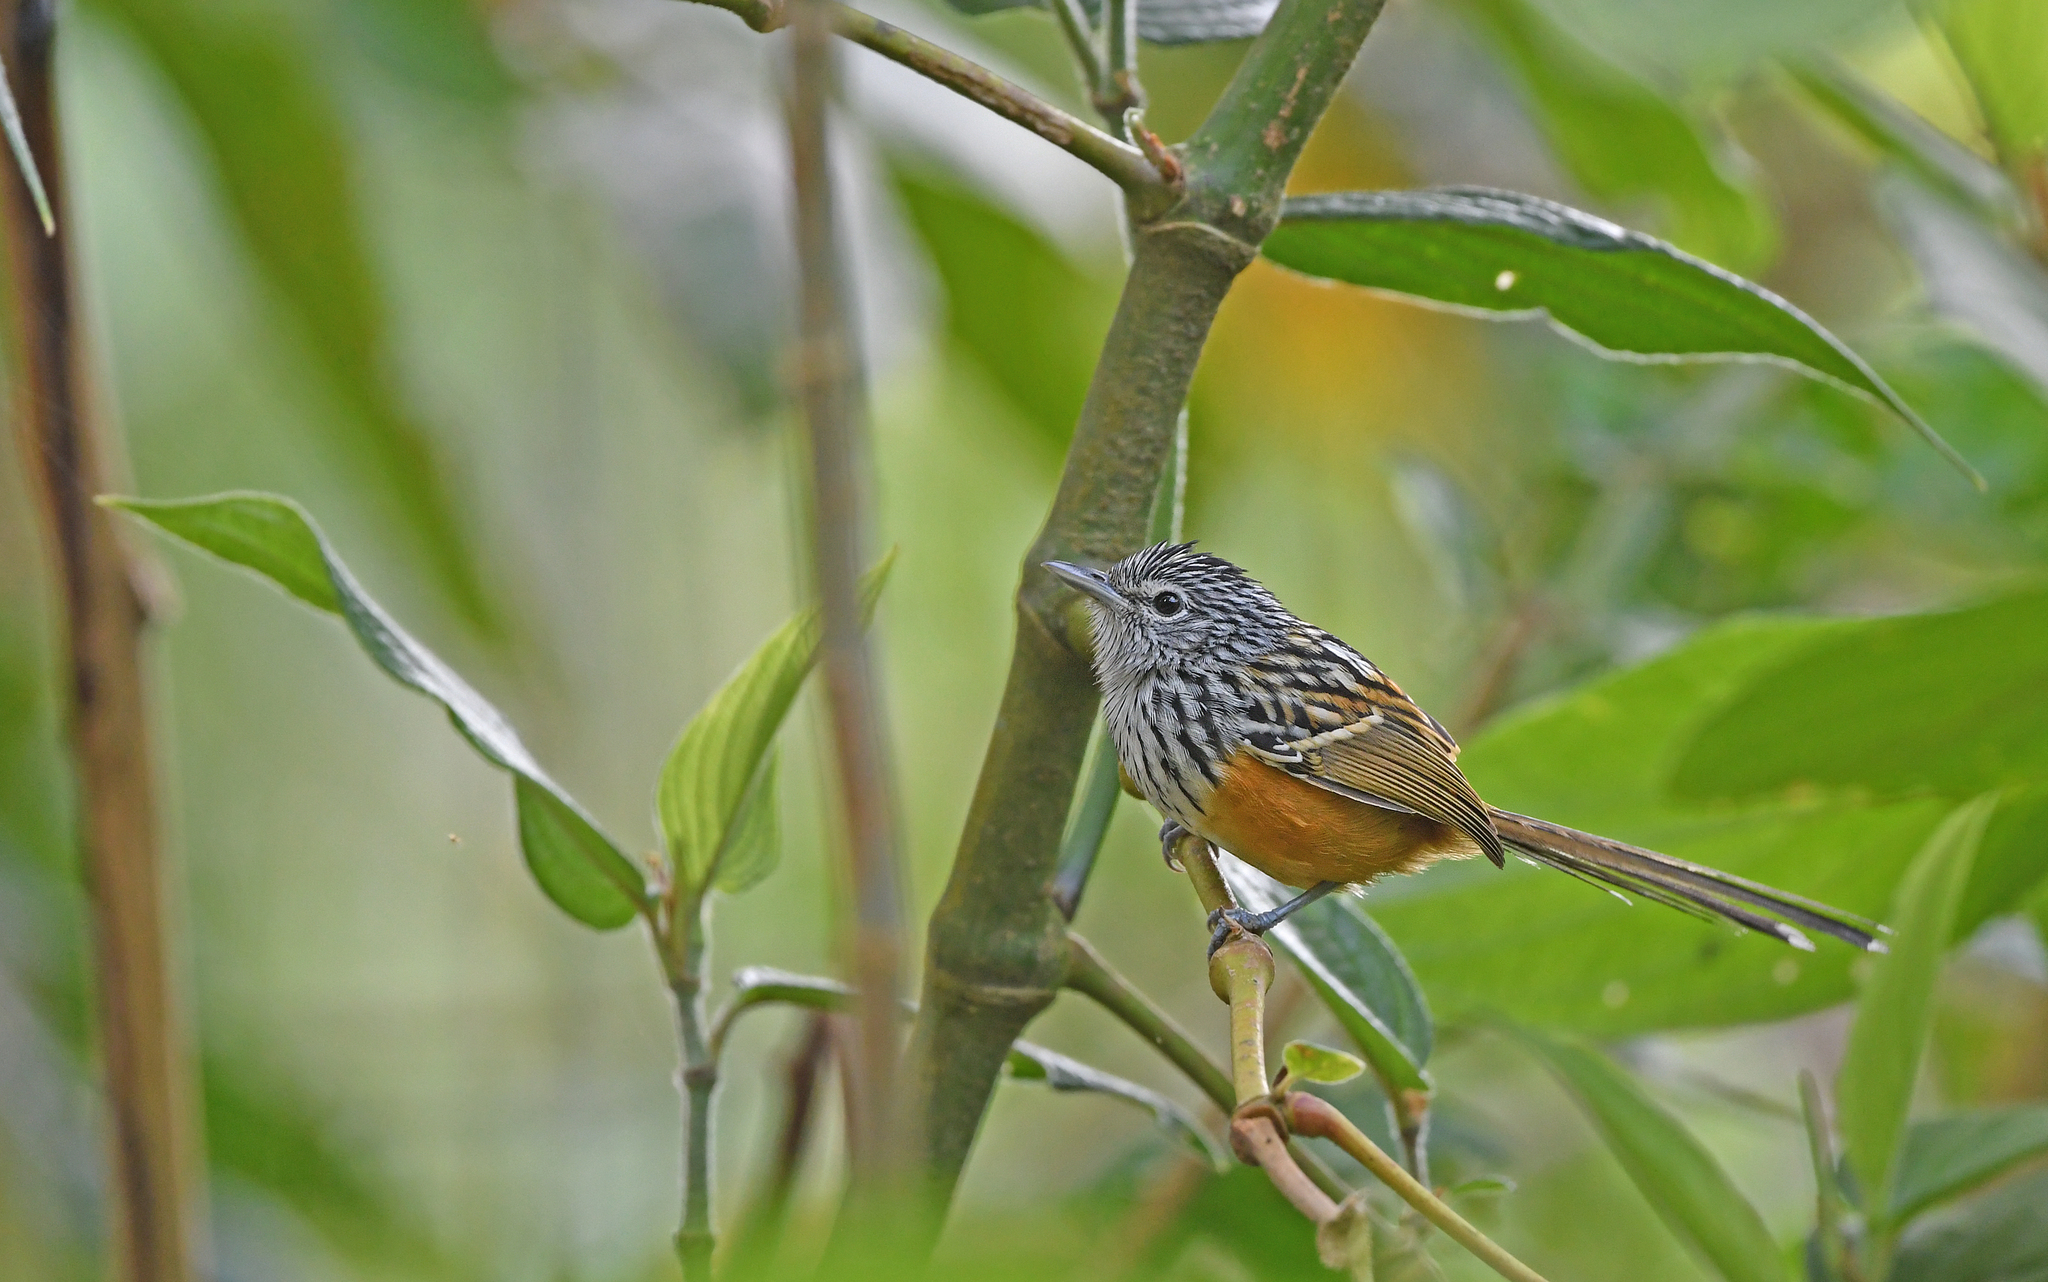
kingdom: Animalia
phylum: Chordata
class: Aves
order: Passeriformes
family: Thamnophilidae
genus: Drymophila
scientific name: Drymophila hellmayri
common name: Santa marta antbird
